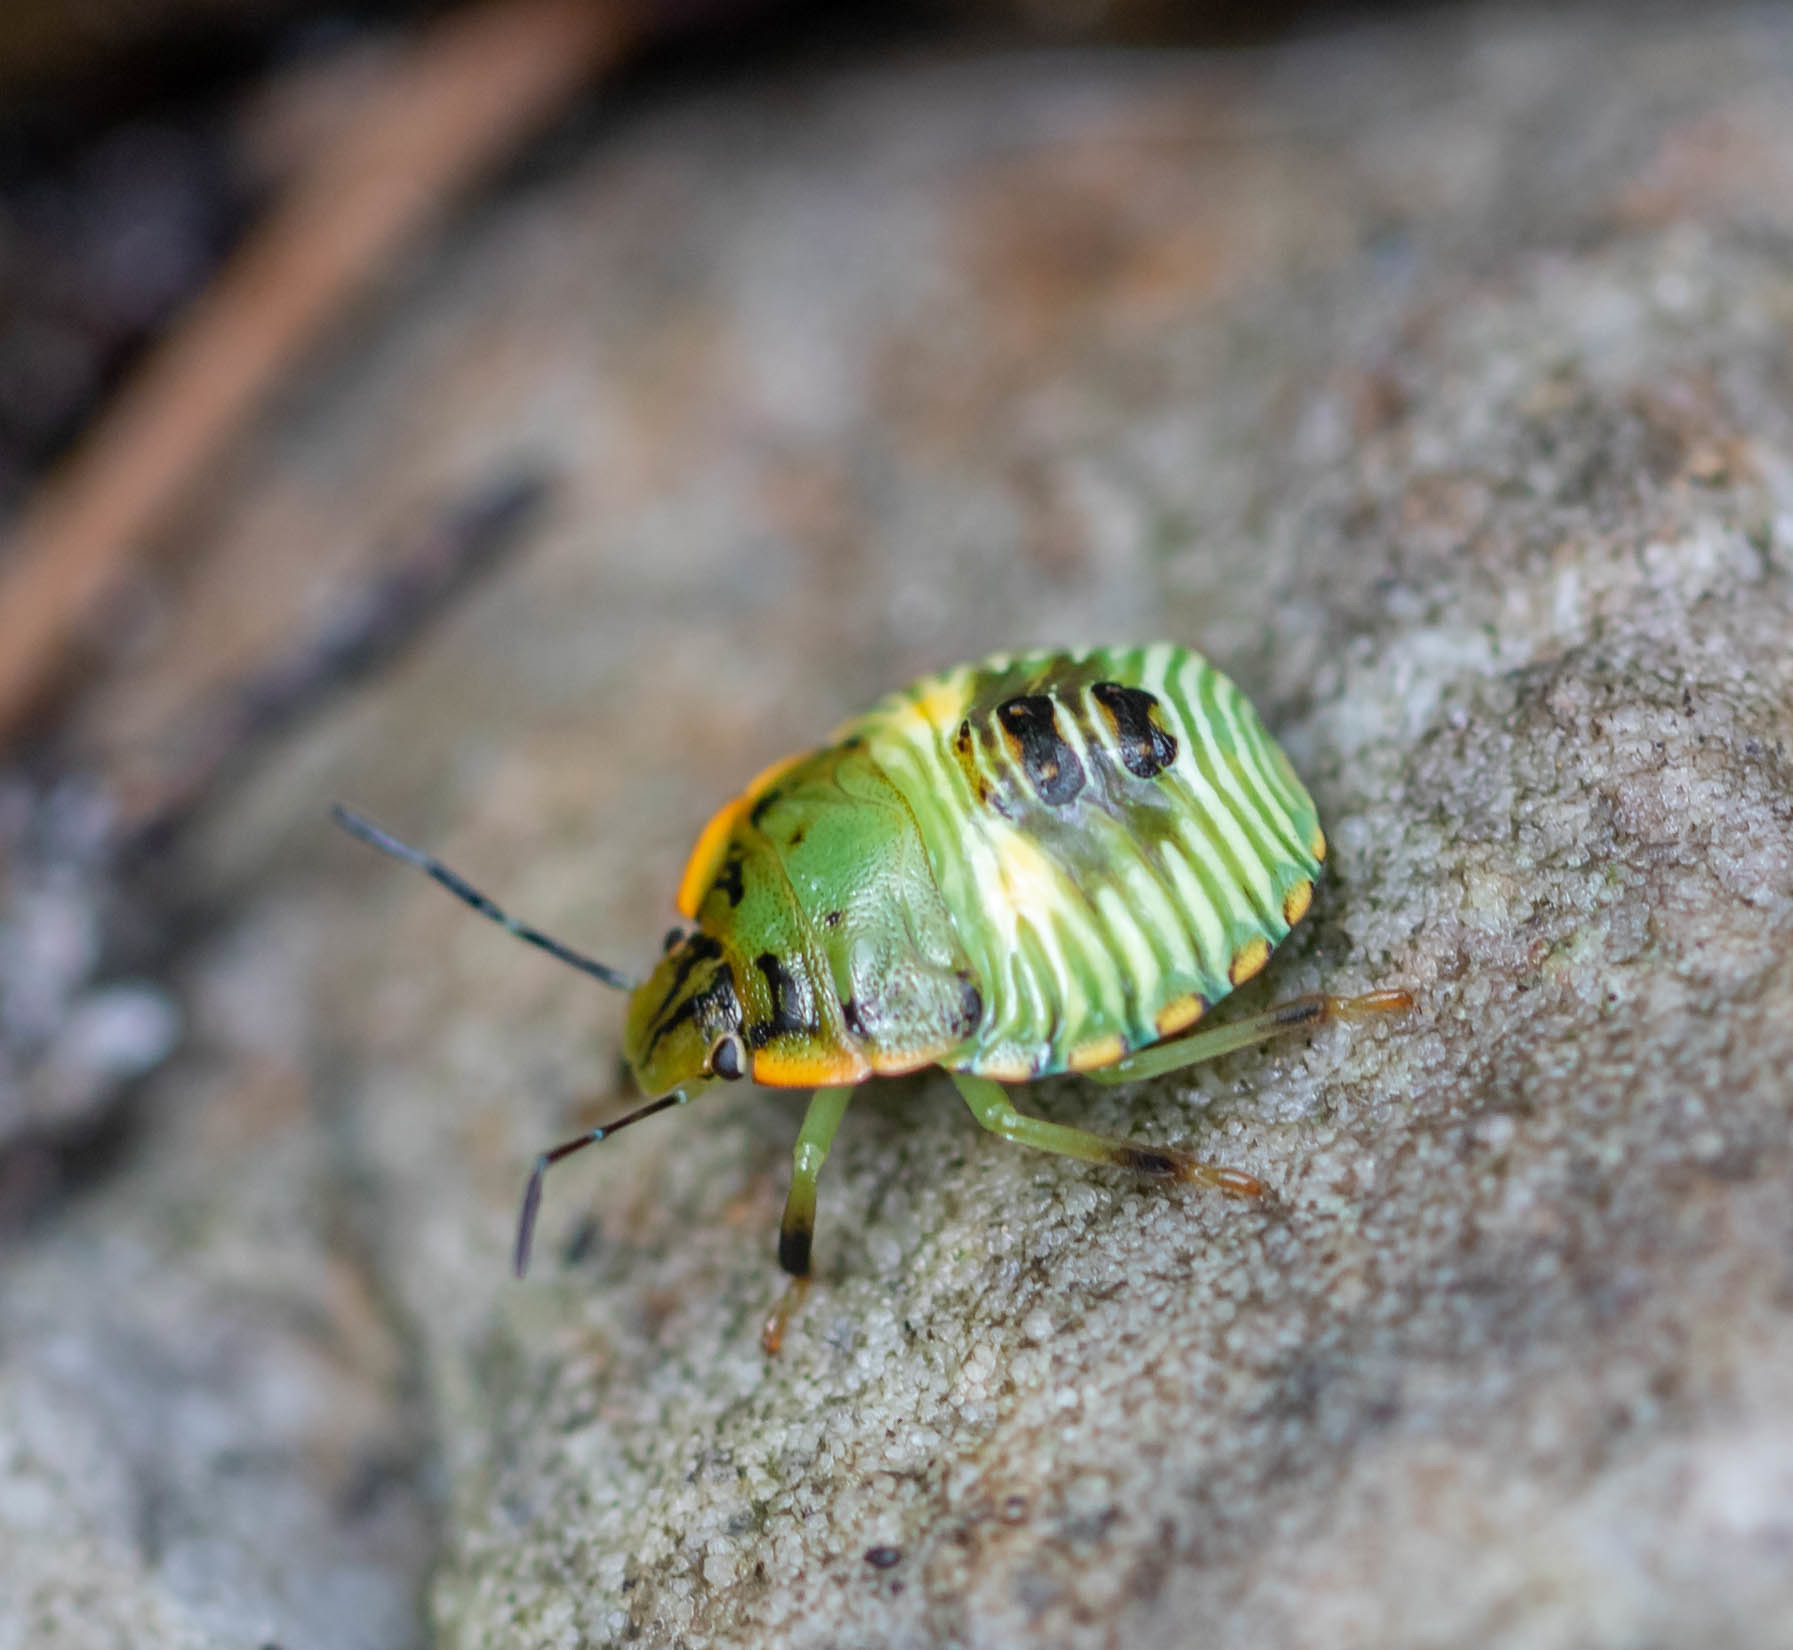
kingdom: Animalia
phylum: Arthropoda
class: Insecta
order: Hemiptera
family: Pentatomidae
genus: Chinavia
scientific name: Chinavia hilaris
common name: Green stink bug
